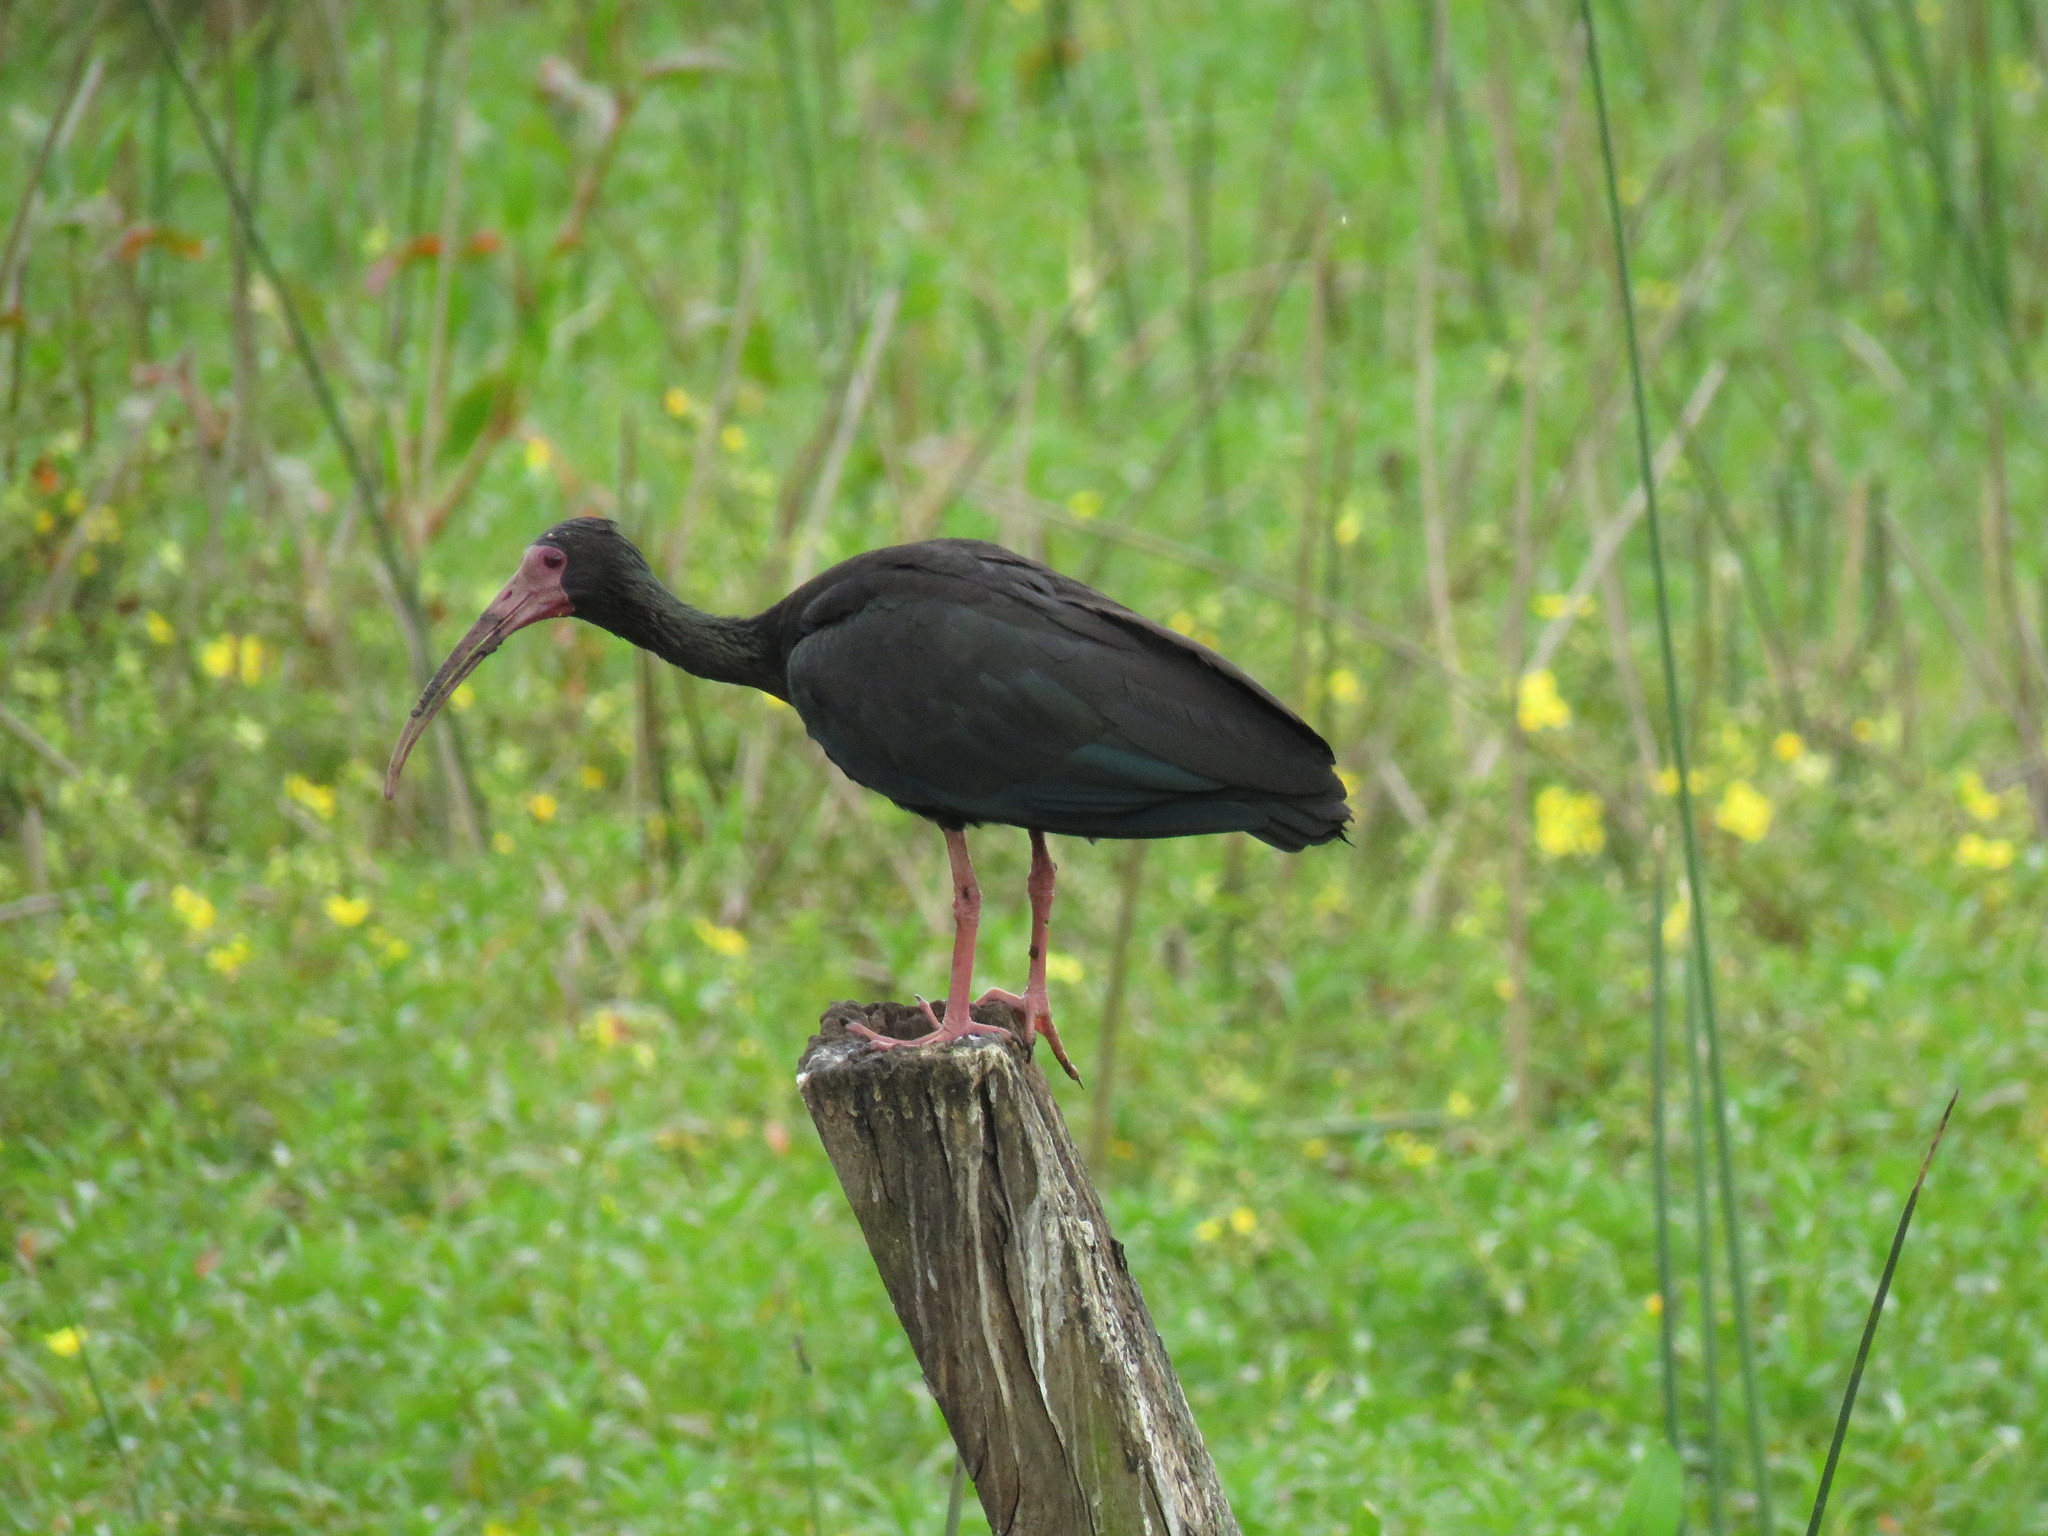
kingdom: Animalia
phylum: Chordata
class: Aves
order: Pelecaniformes
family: Threskiornithidae
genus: Phimosus
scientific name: Phimosus infuscatus
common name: Bare-faced ibis
